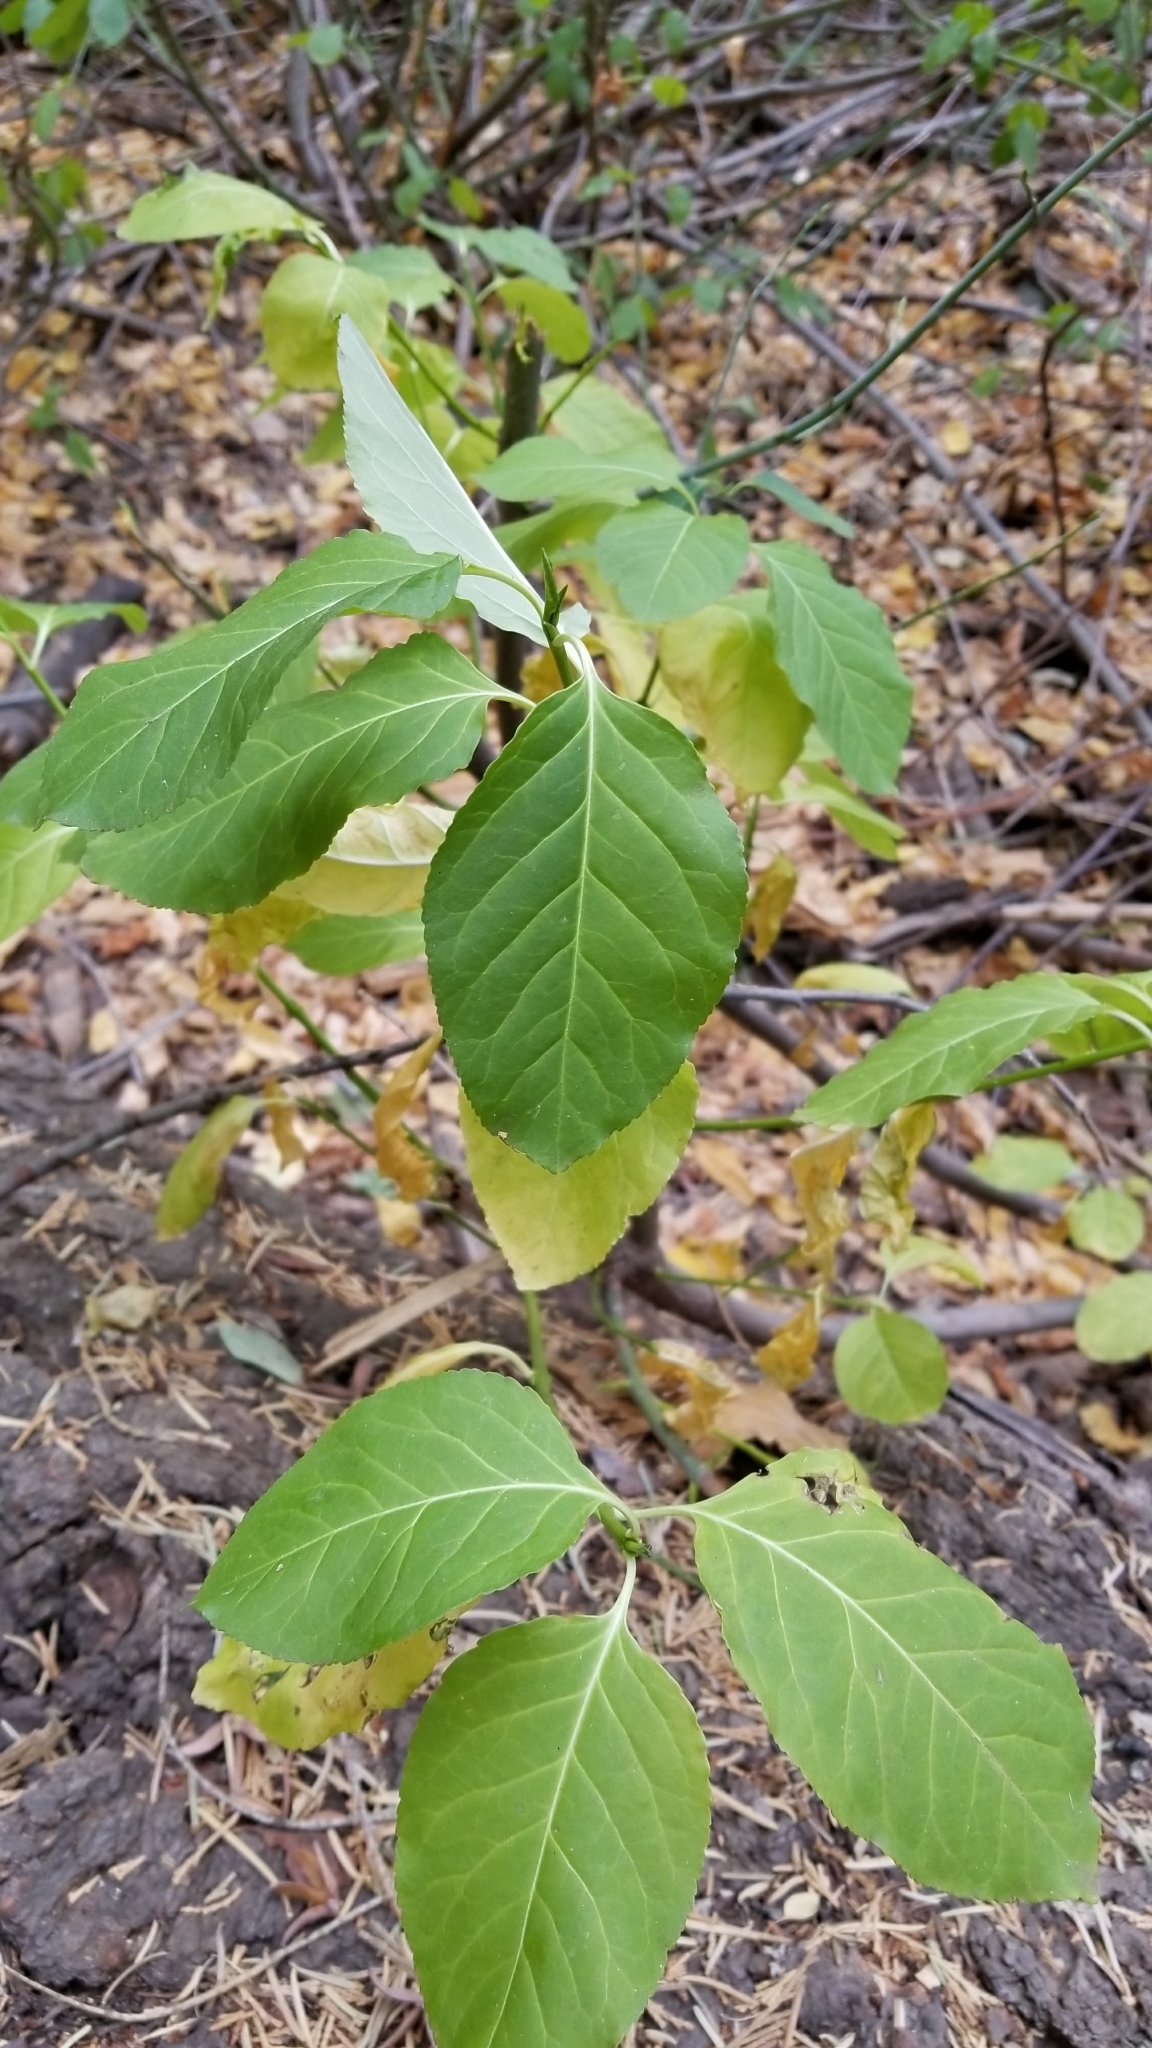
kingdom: Plantae
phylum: Tracheophyta
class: Magnoliopsida
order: Celastrales
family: Celastraceae
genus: Euonymus
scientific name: Euonymus occidentalis
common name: Western burningbush
